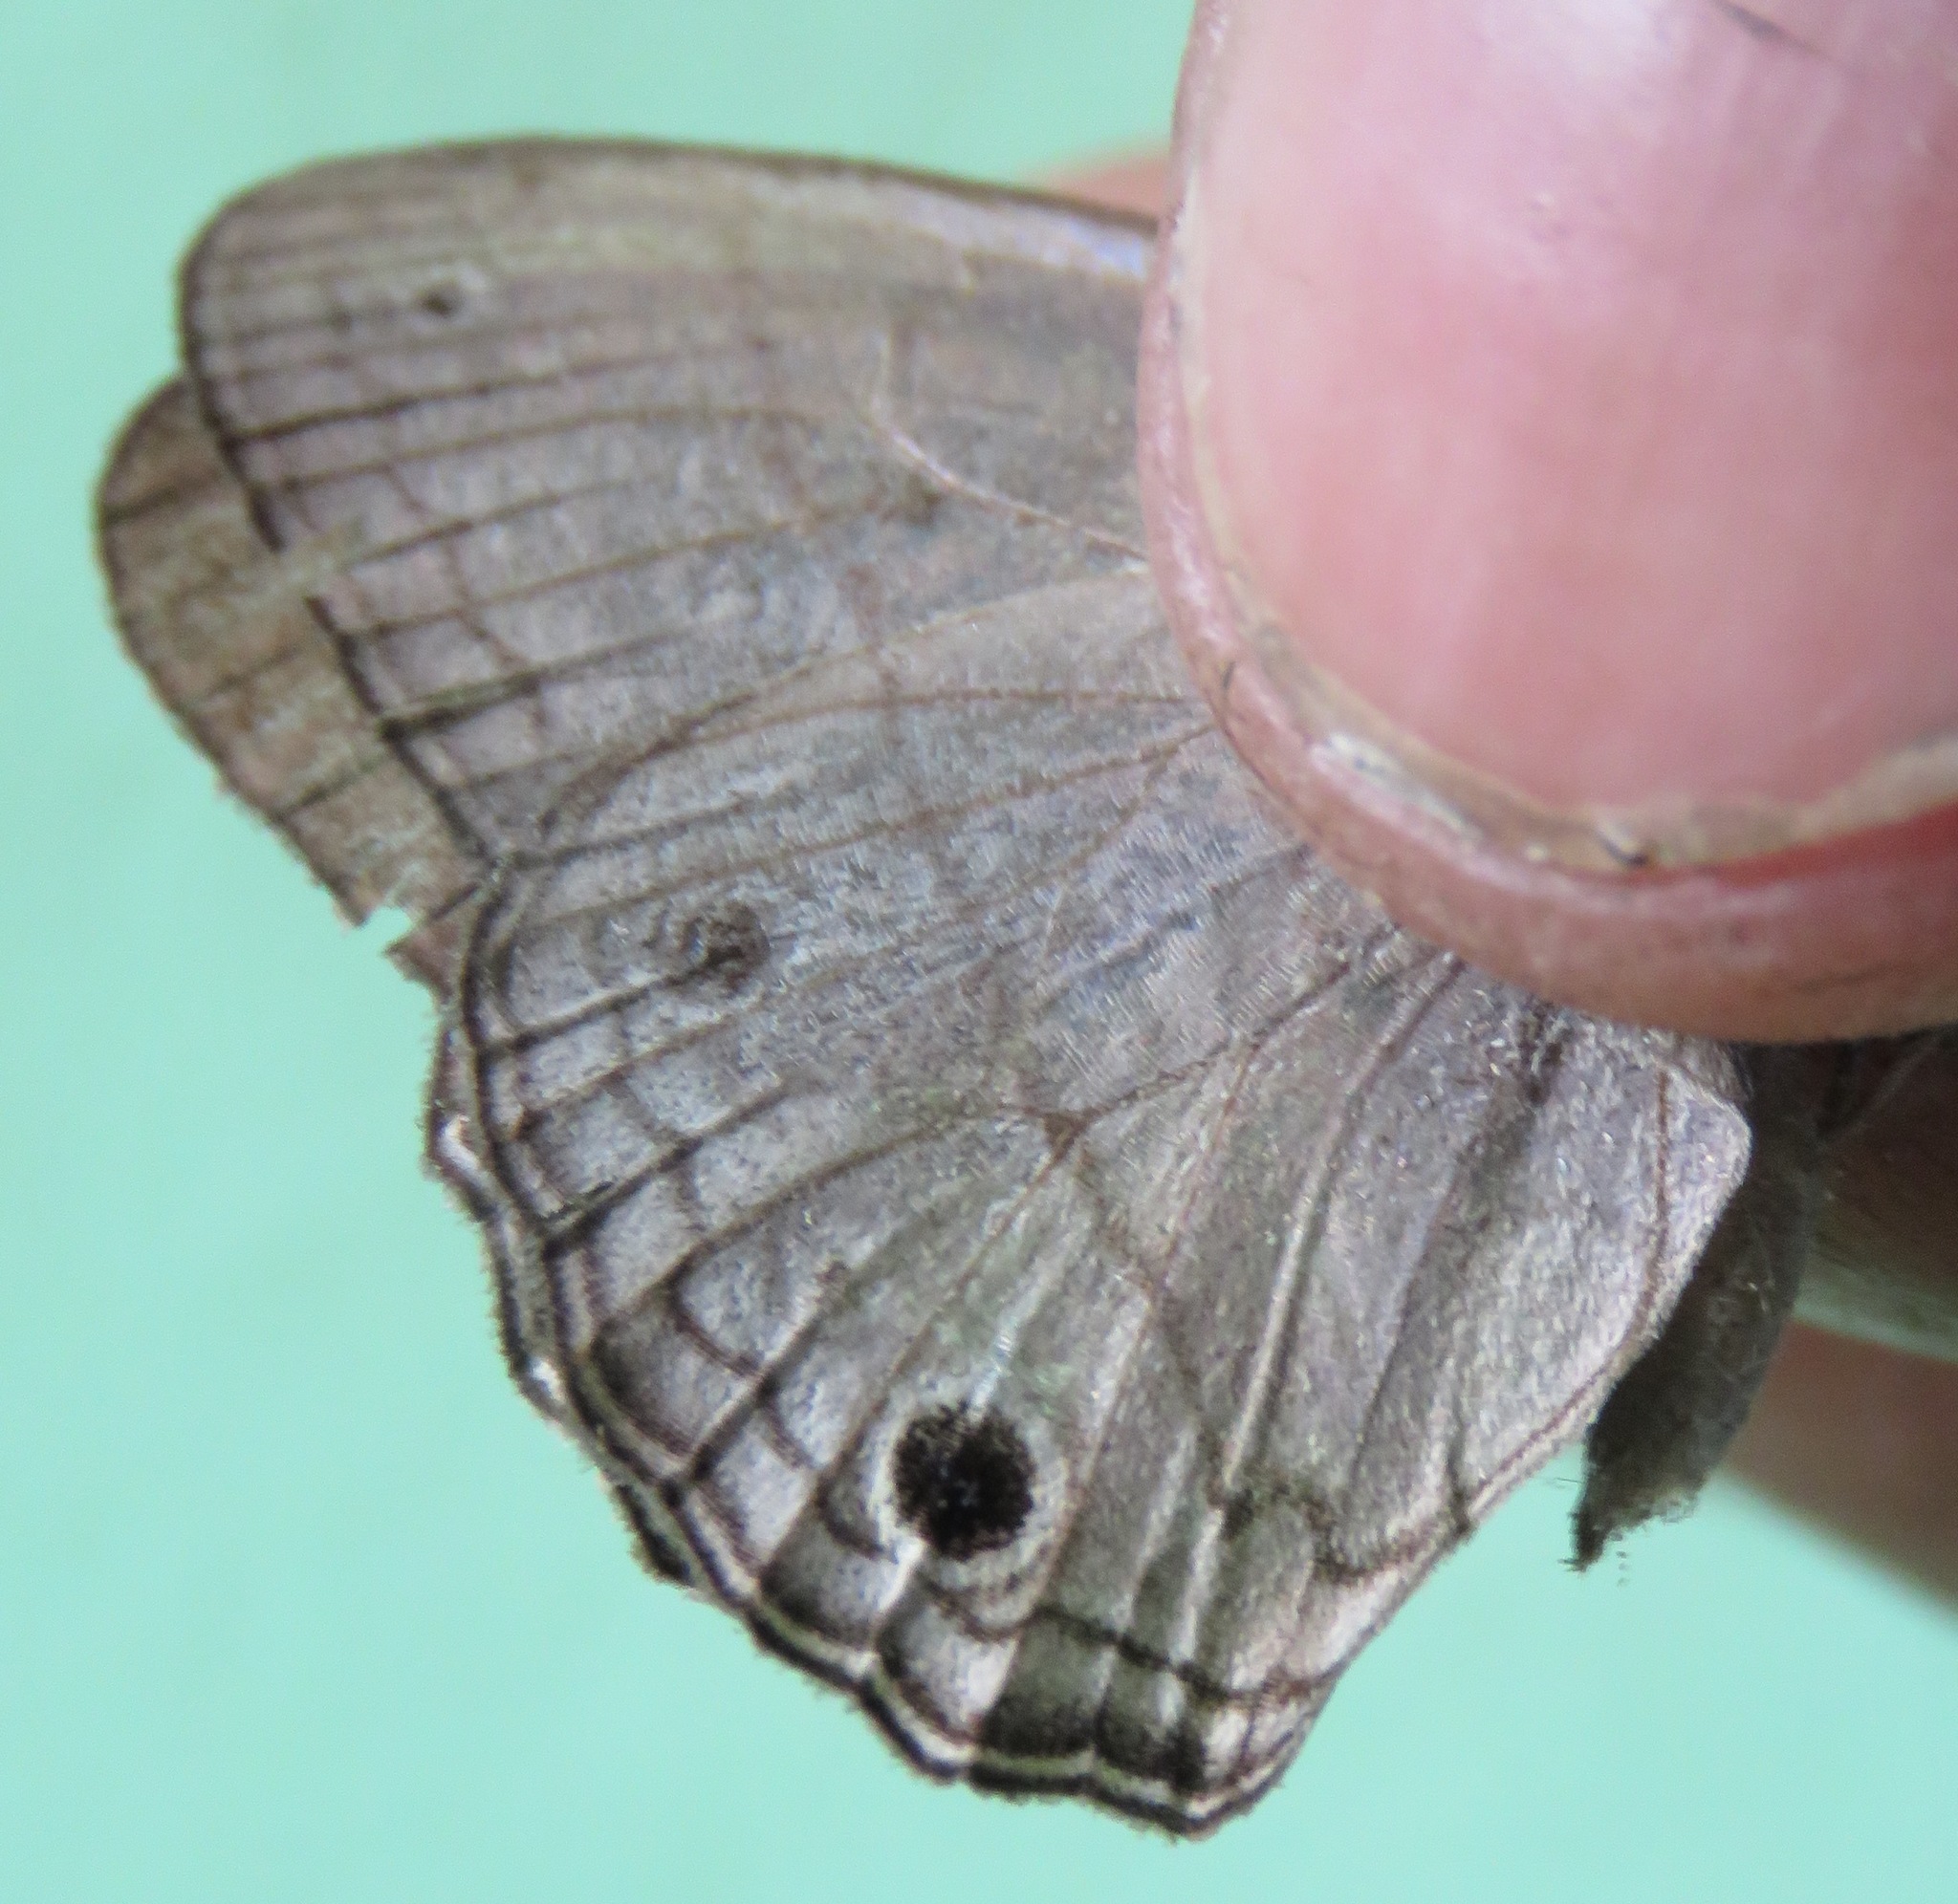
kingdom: Animalia
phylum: Arthropoda
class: Insecta
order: Lepidoptera
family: Nymphalidae
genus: Vareuptychia
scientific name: Vareuptychia similis
